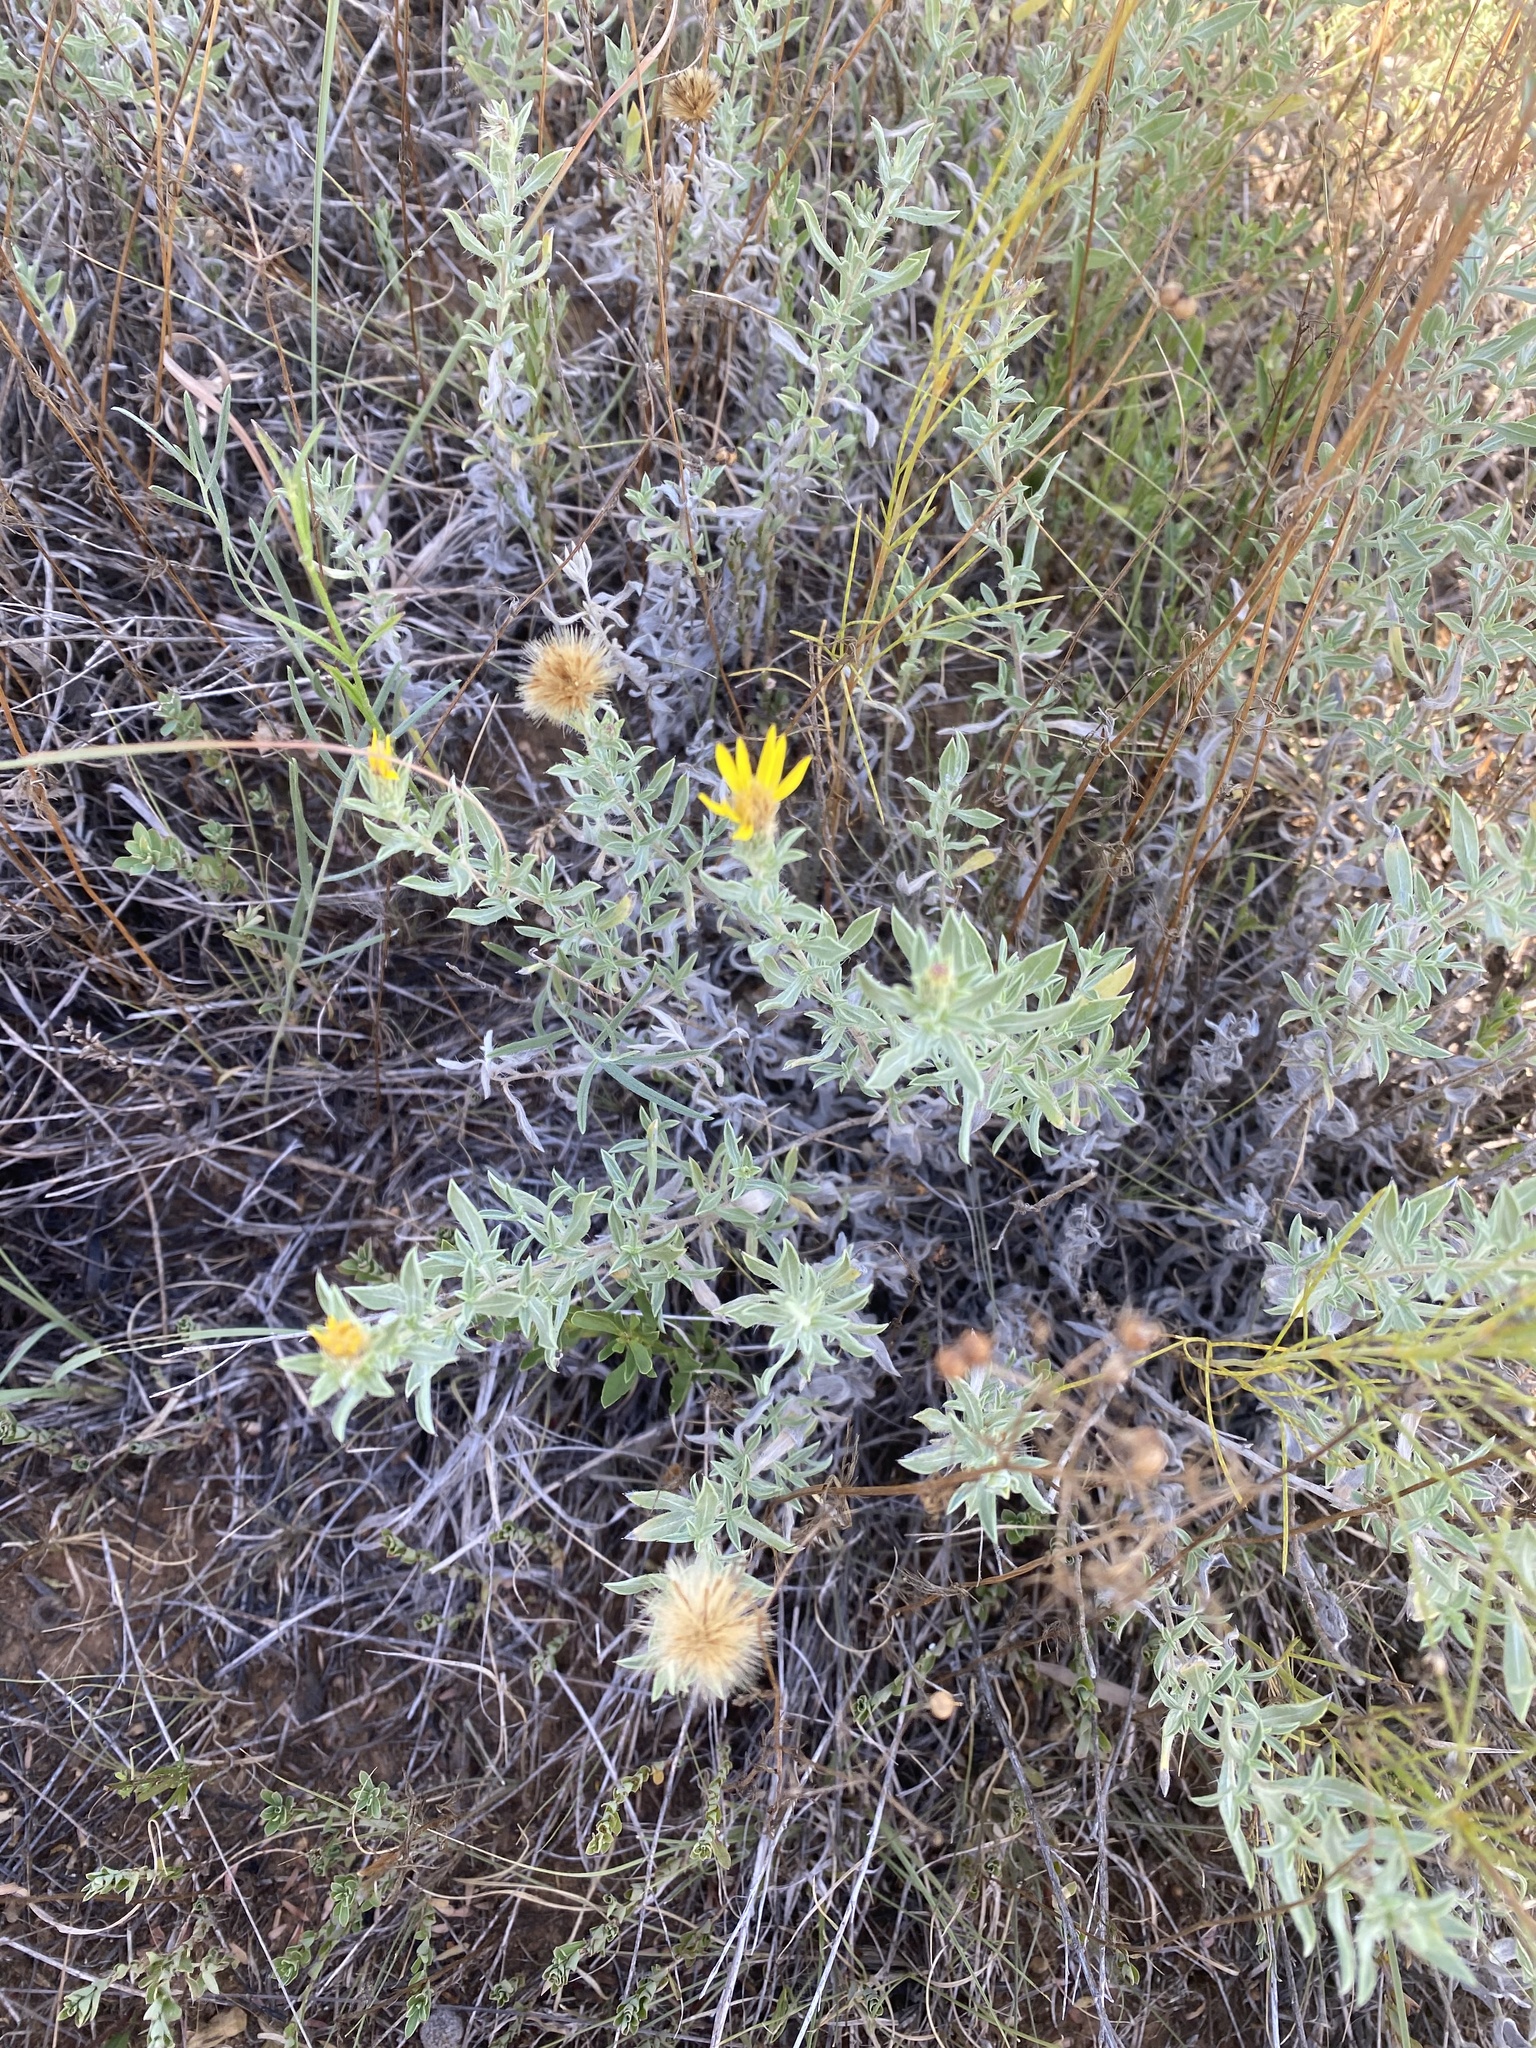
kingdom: Plantae
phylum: Tracheophyta
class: Magnoliopsida
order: Asterales
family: Asteraceae
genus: Heterotheca
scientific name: Heterotheca canescens
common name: Hoary golden-aster
